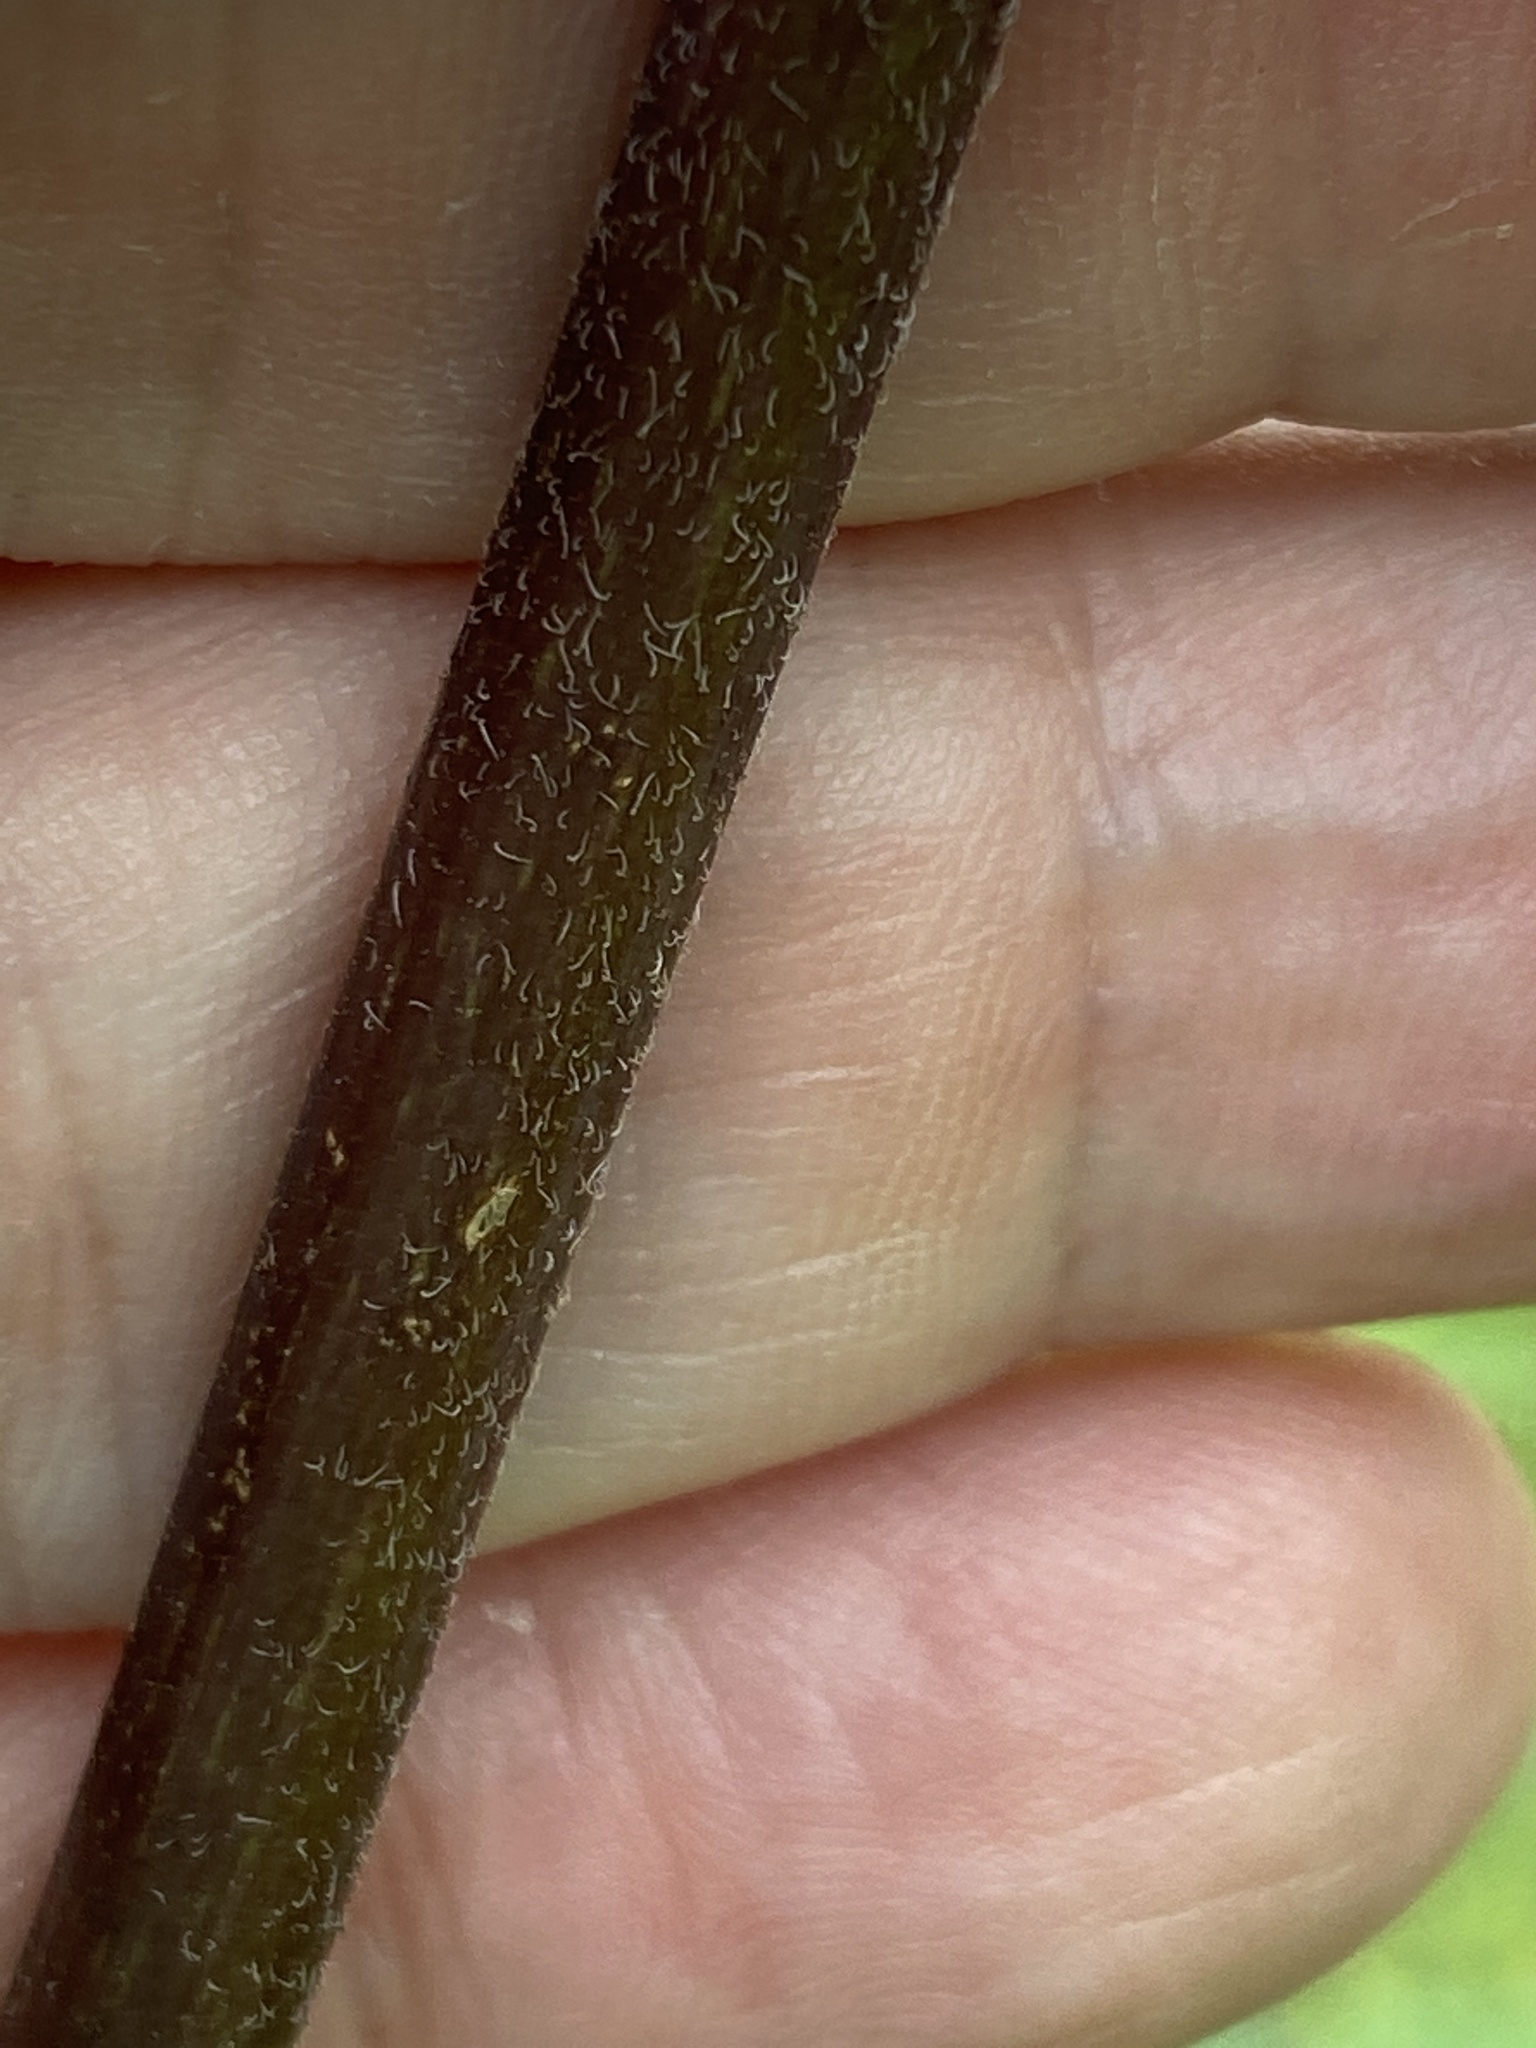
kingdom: Plantae
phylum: Tracheophyta
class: Magnoliopsida
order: Asterales
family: Asteraceae
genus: Helianthus
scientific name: Helianthus schweinitzii
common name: Schweinitz's sunflower
